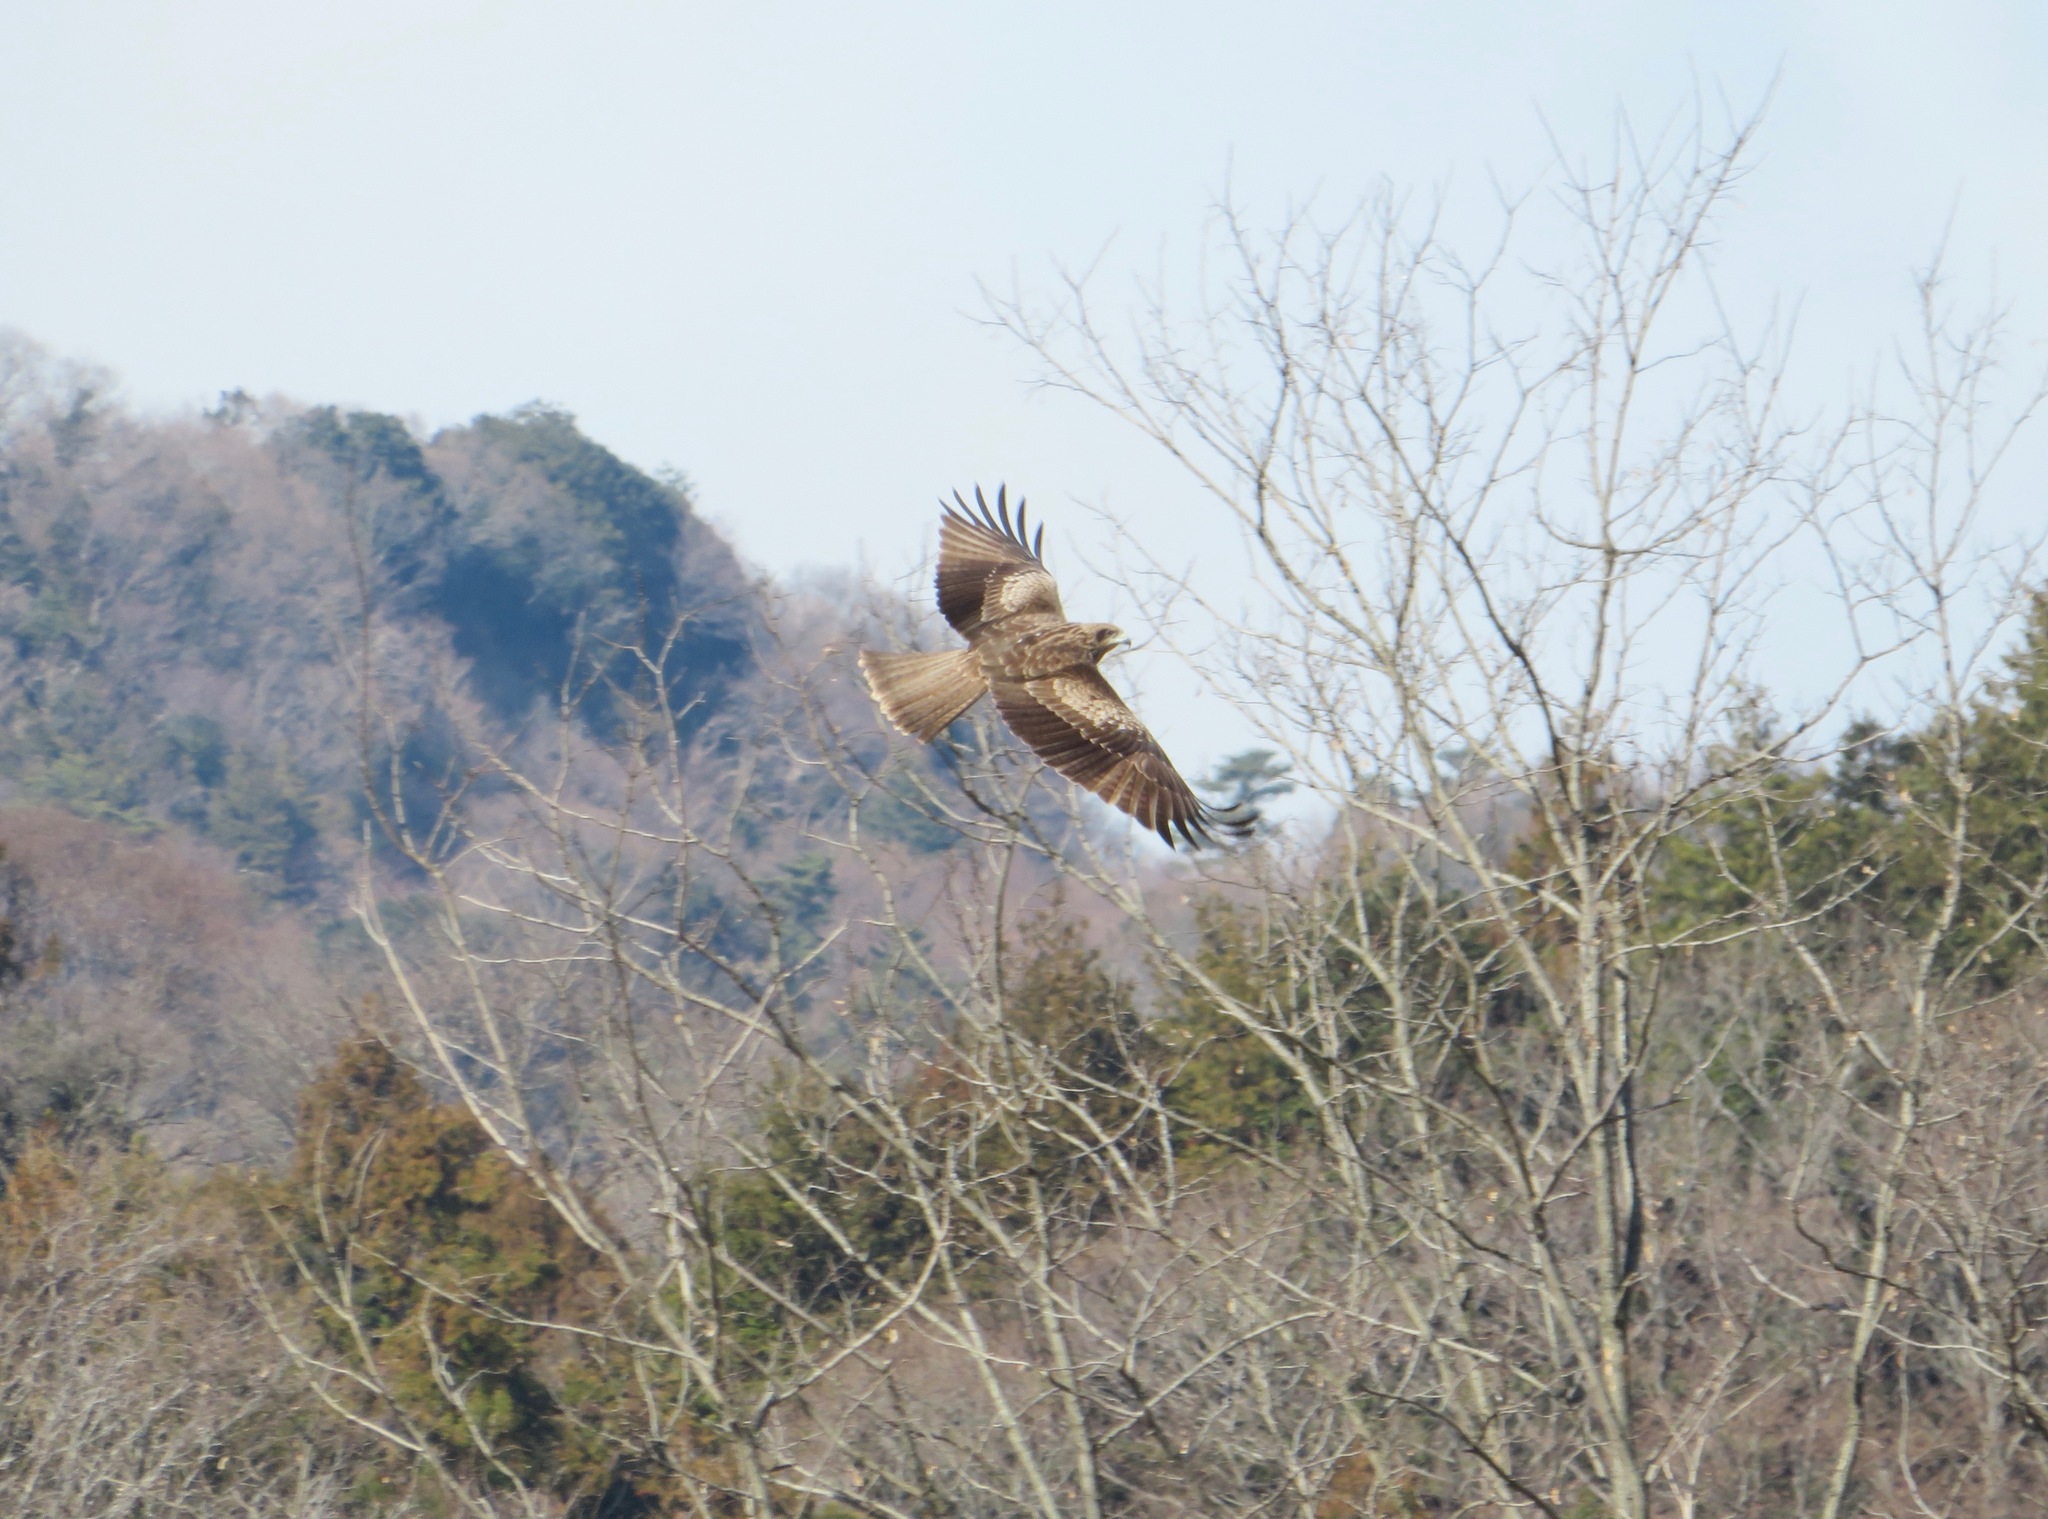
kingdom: Animalia
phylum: Chordata
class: Aves
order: Accipitriformes
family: Accipitridae
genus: Milvus
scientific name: Milvus migrans
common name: Black kite
